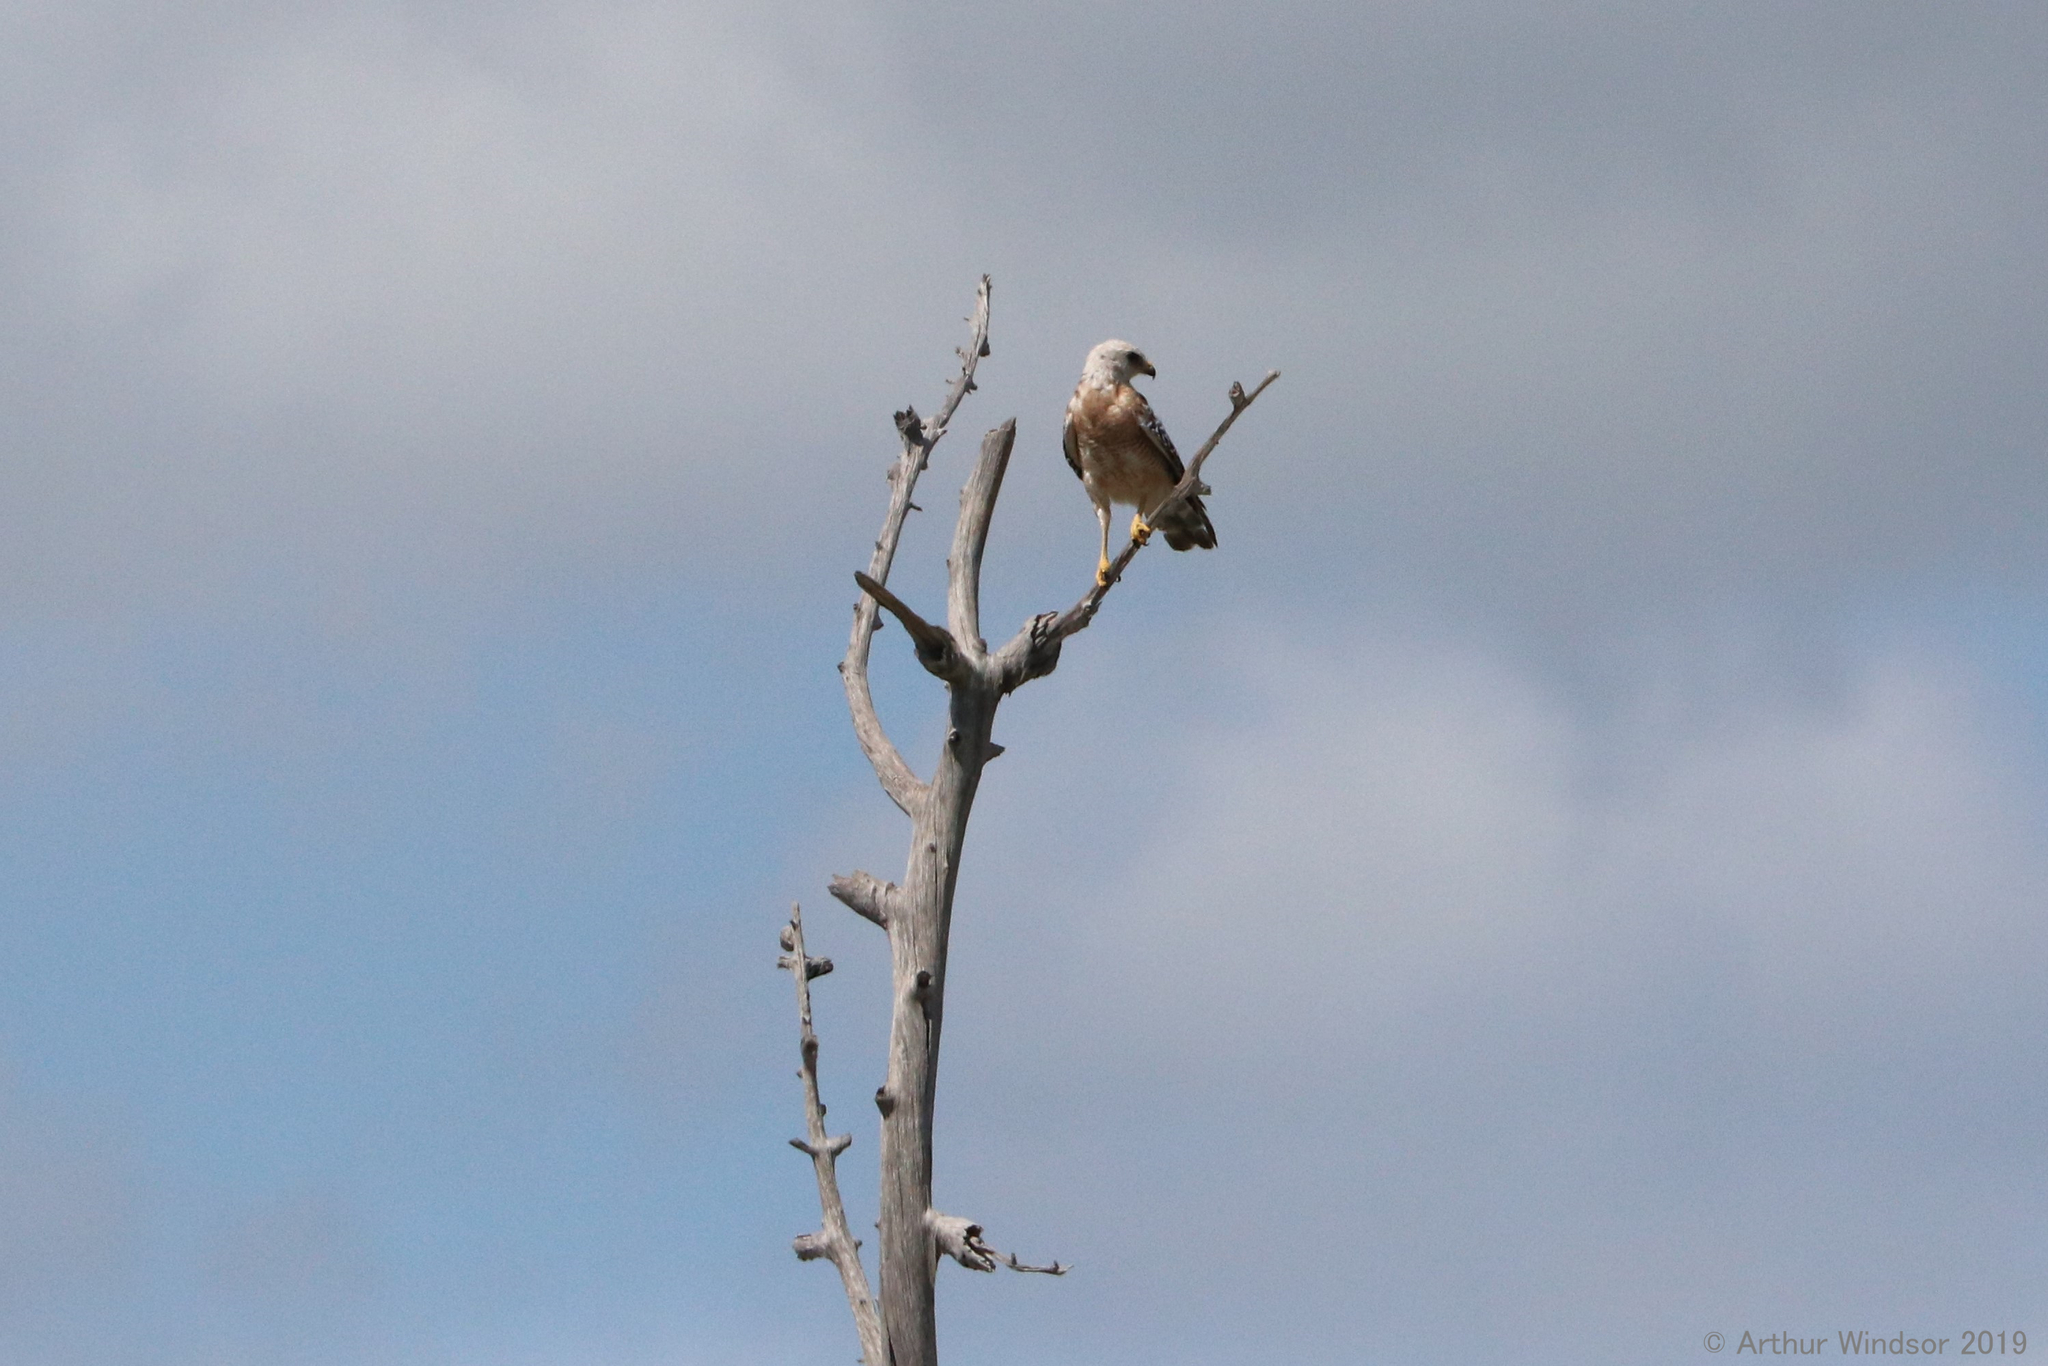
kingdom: Animalia
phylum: Chordata
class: Aves
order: Accipitriformes
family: Accipitridae
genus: Buteo
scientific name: Buteo lineatus
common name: Red-shouldered hawk
